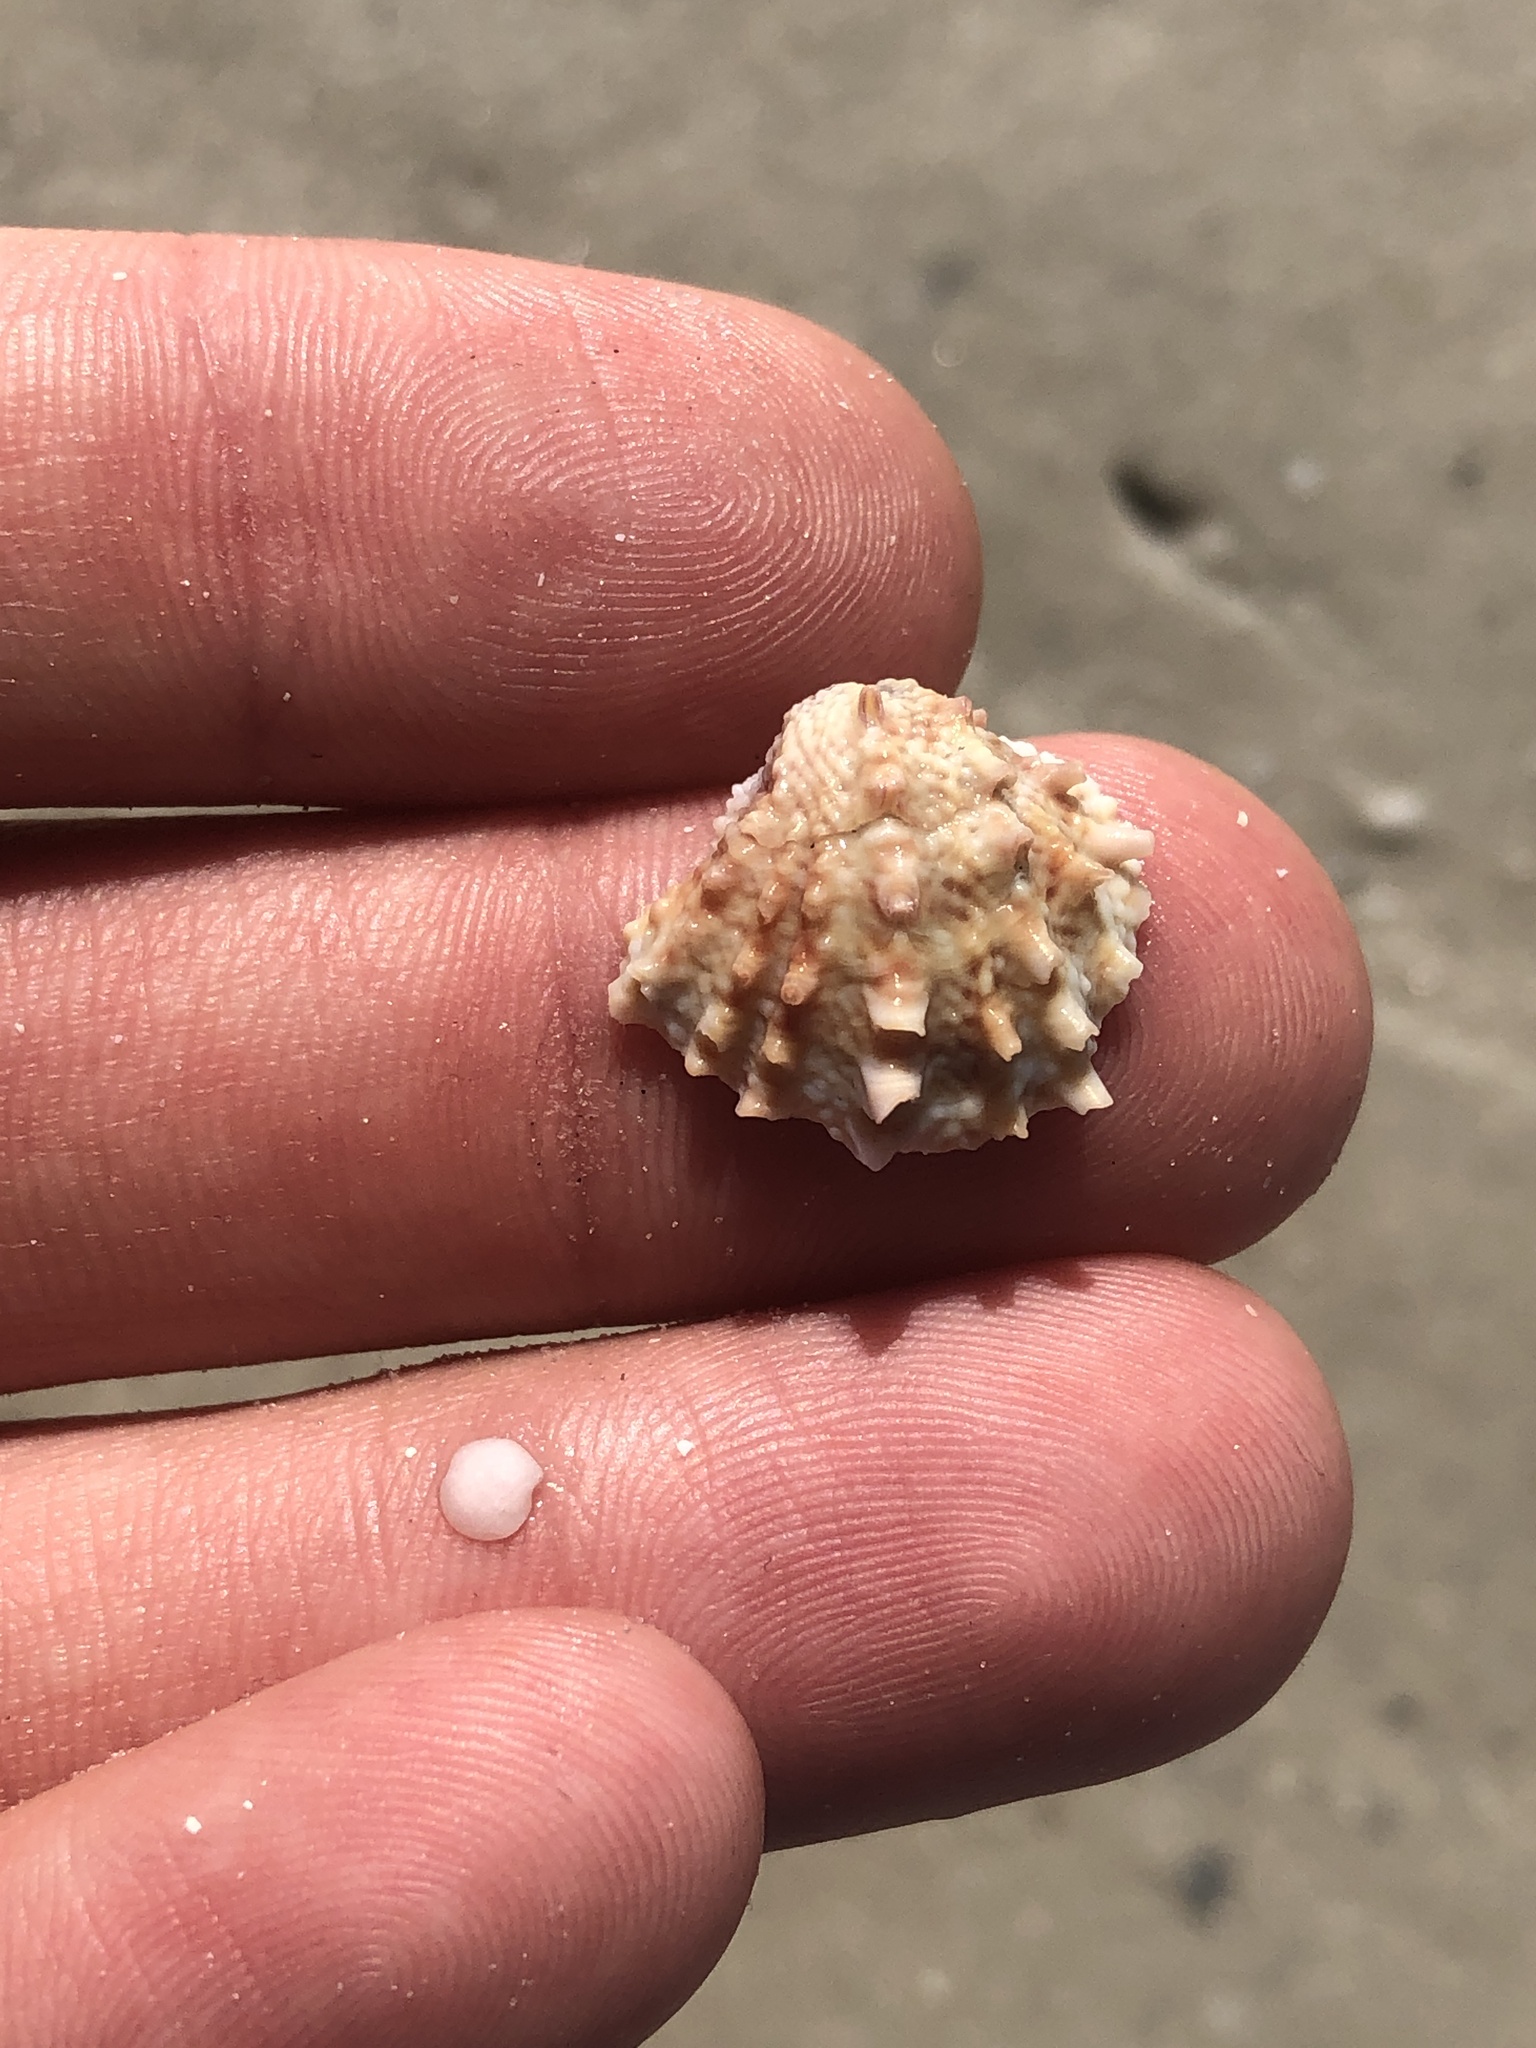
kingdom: Animalia
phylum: Mollusca
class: Bivalvia
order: Venerida
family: Chamidae
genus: Arcinella
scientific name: Arcinella cornuta
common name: Florida spiny jewel box
